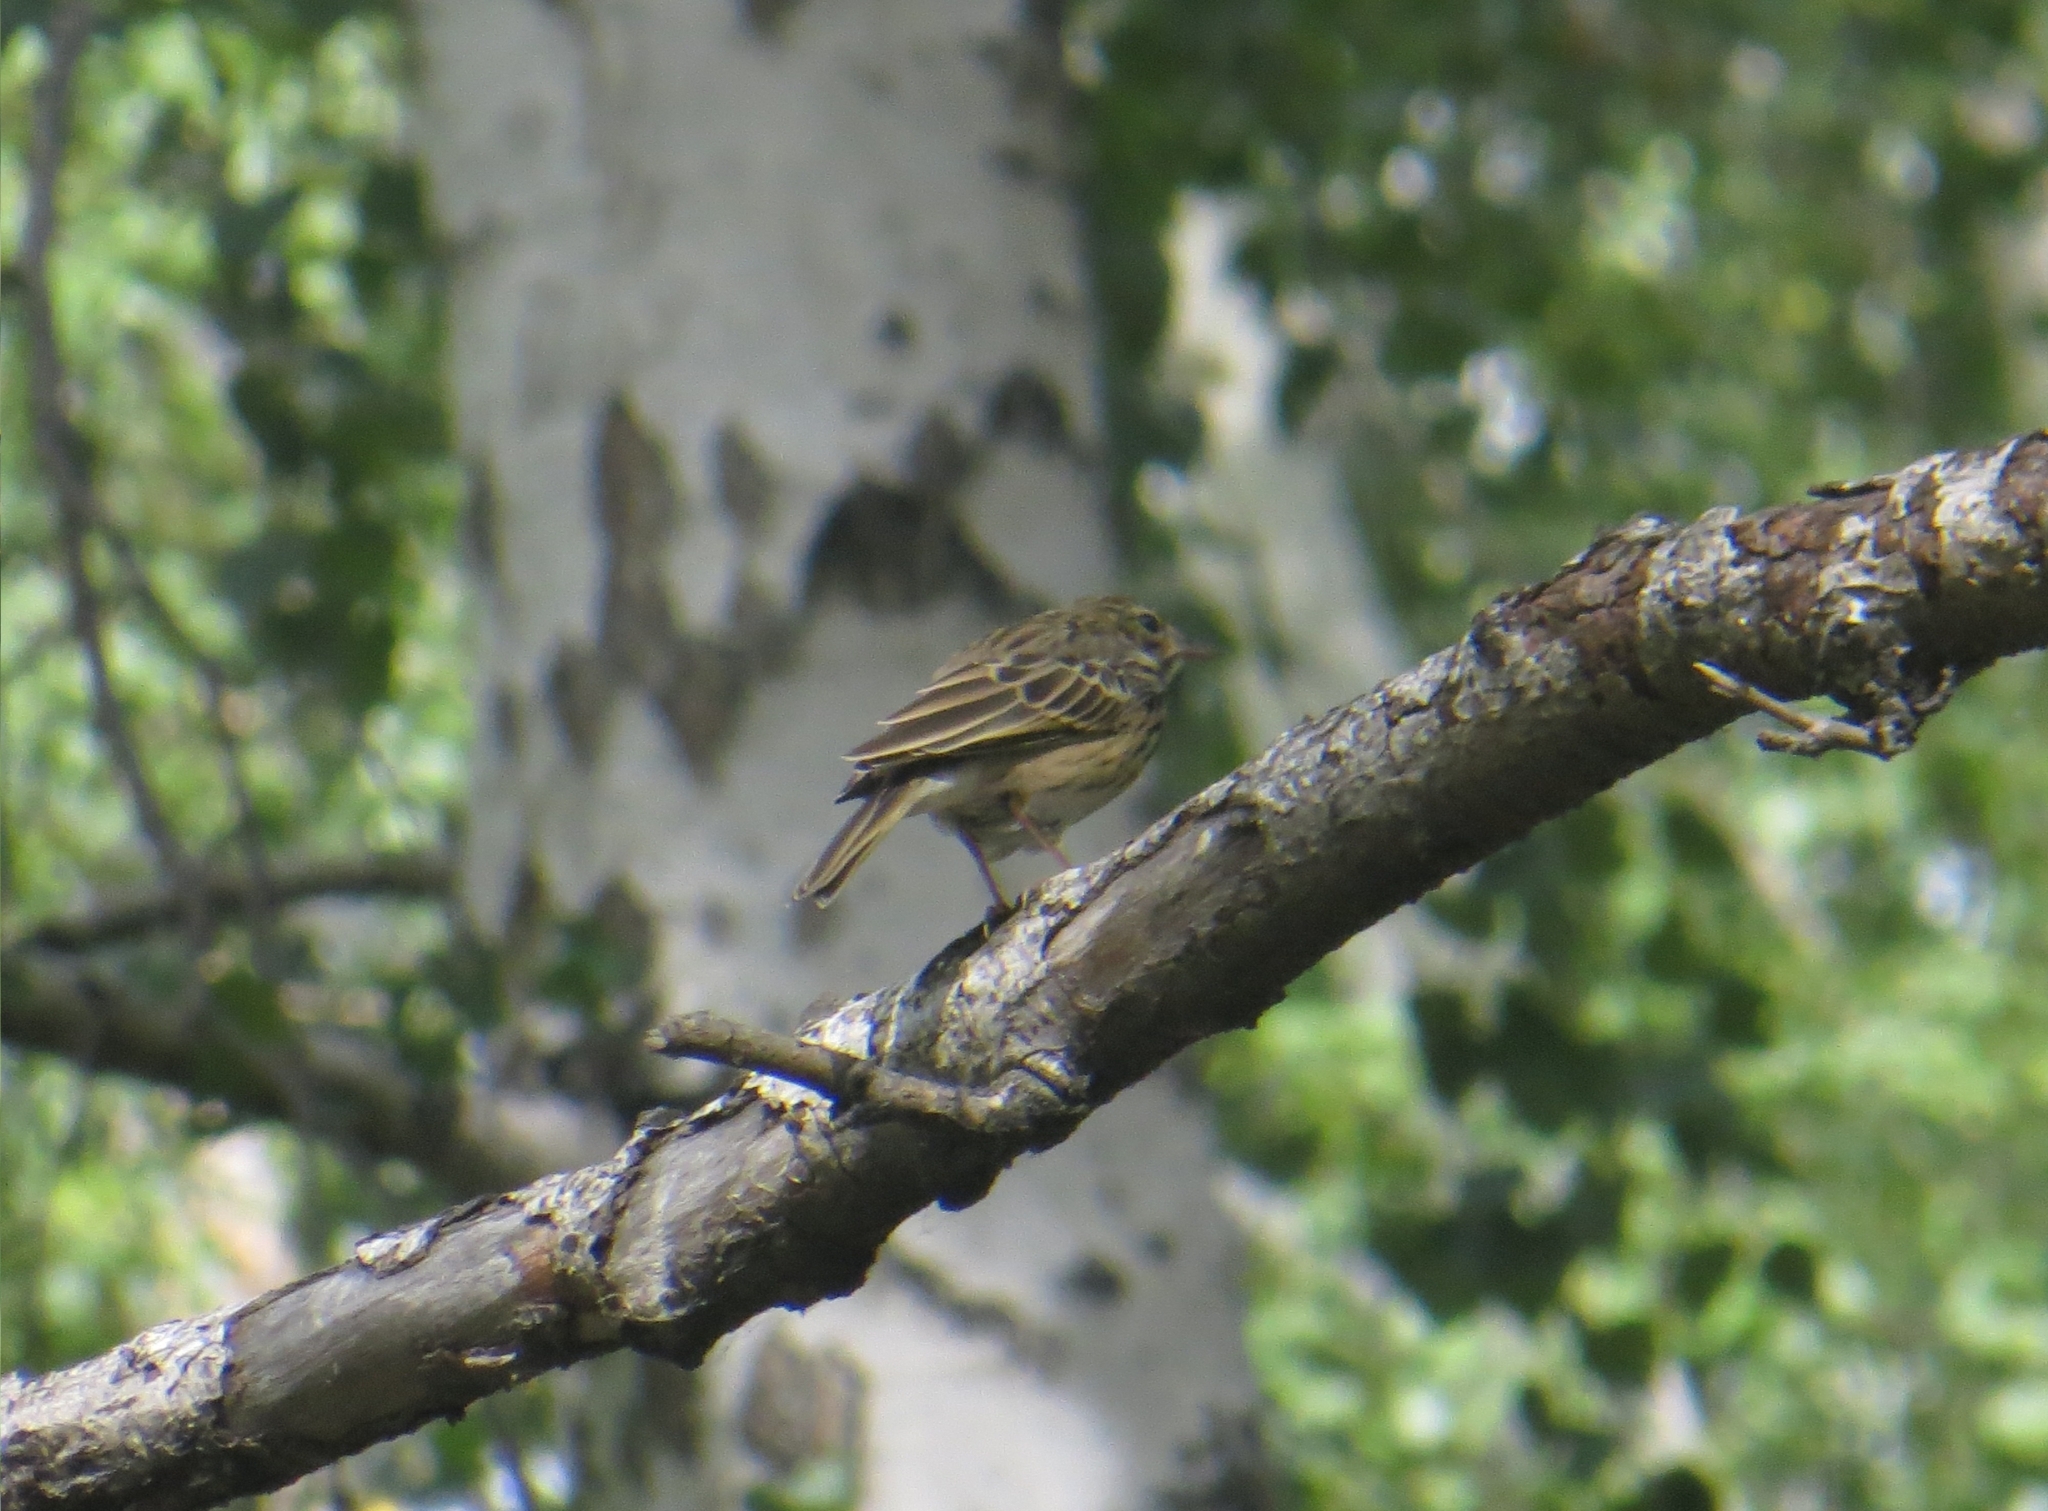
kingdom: Animalia
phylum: Chordata
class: Aves
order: Passeriformes
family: Motacillidae
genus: Anthus
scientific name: Anthus trivialis
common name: Tree pipit
